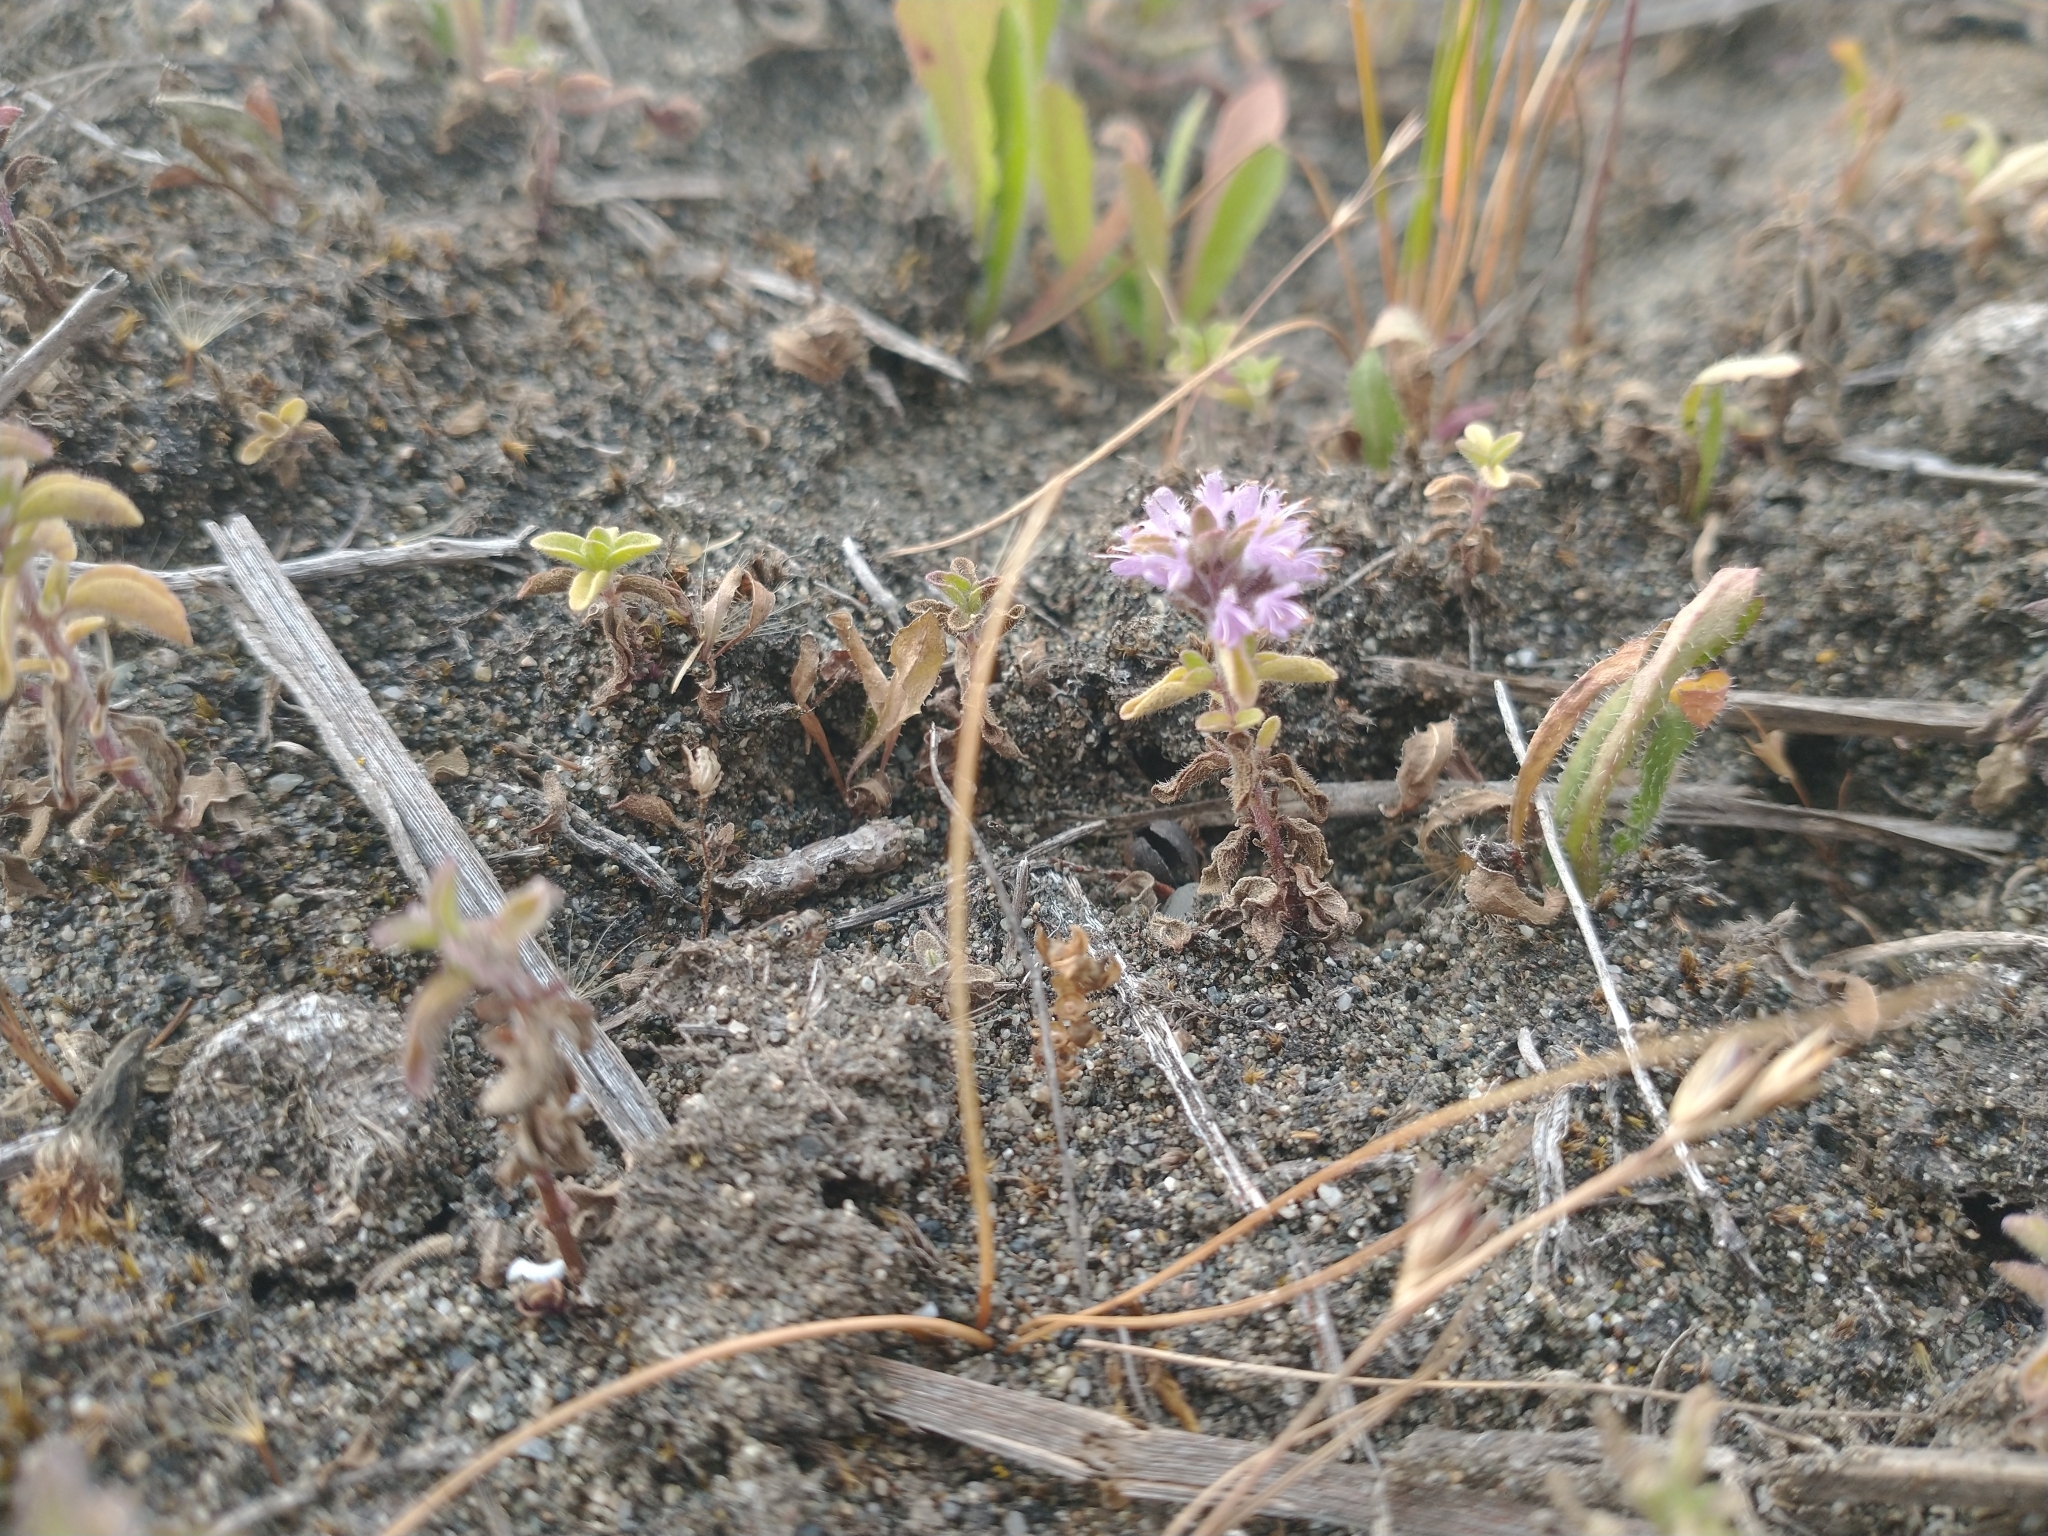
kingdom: Plantae
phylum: Tracheophyta
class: Magnoliopsida
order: Lamiales
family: Lamiaceae
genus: Mentha
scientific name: Mentha pulegium
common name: Pennyroyal
